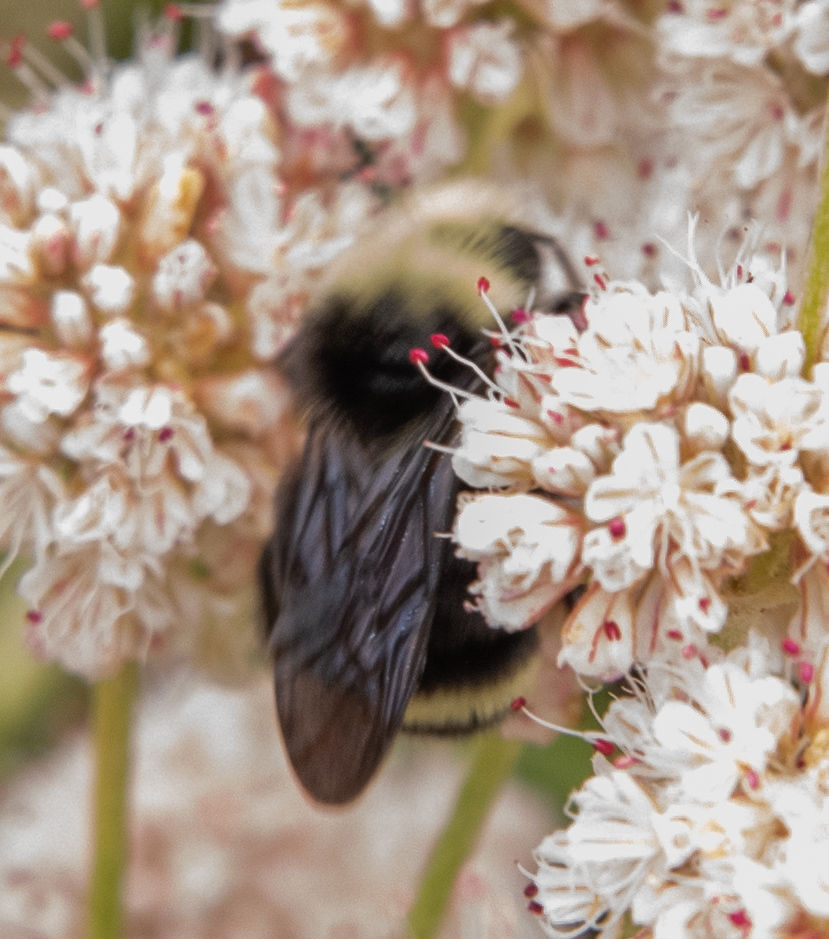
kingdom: Animalia
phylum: Arthropoda
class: Insecta
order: Hymenoptera
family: Apidae
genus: Bombus
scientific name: Bombus vosnesenskii
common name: Vosnesensky bumble bee
